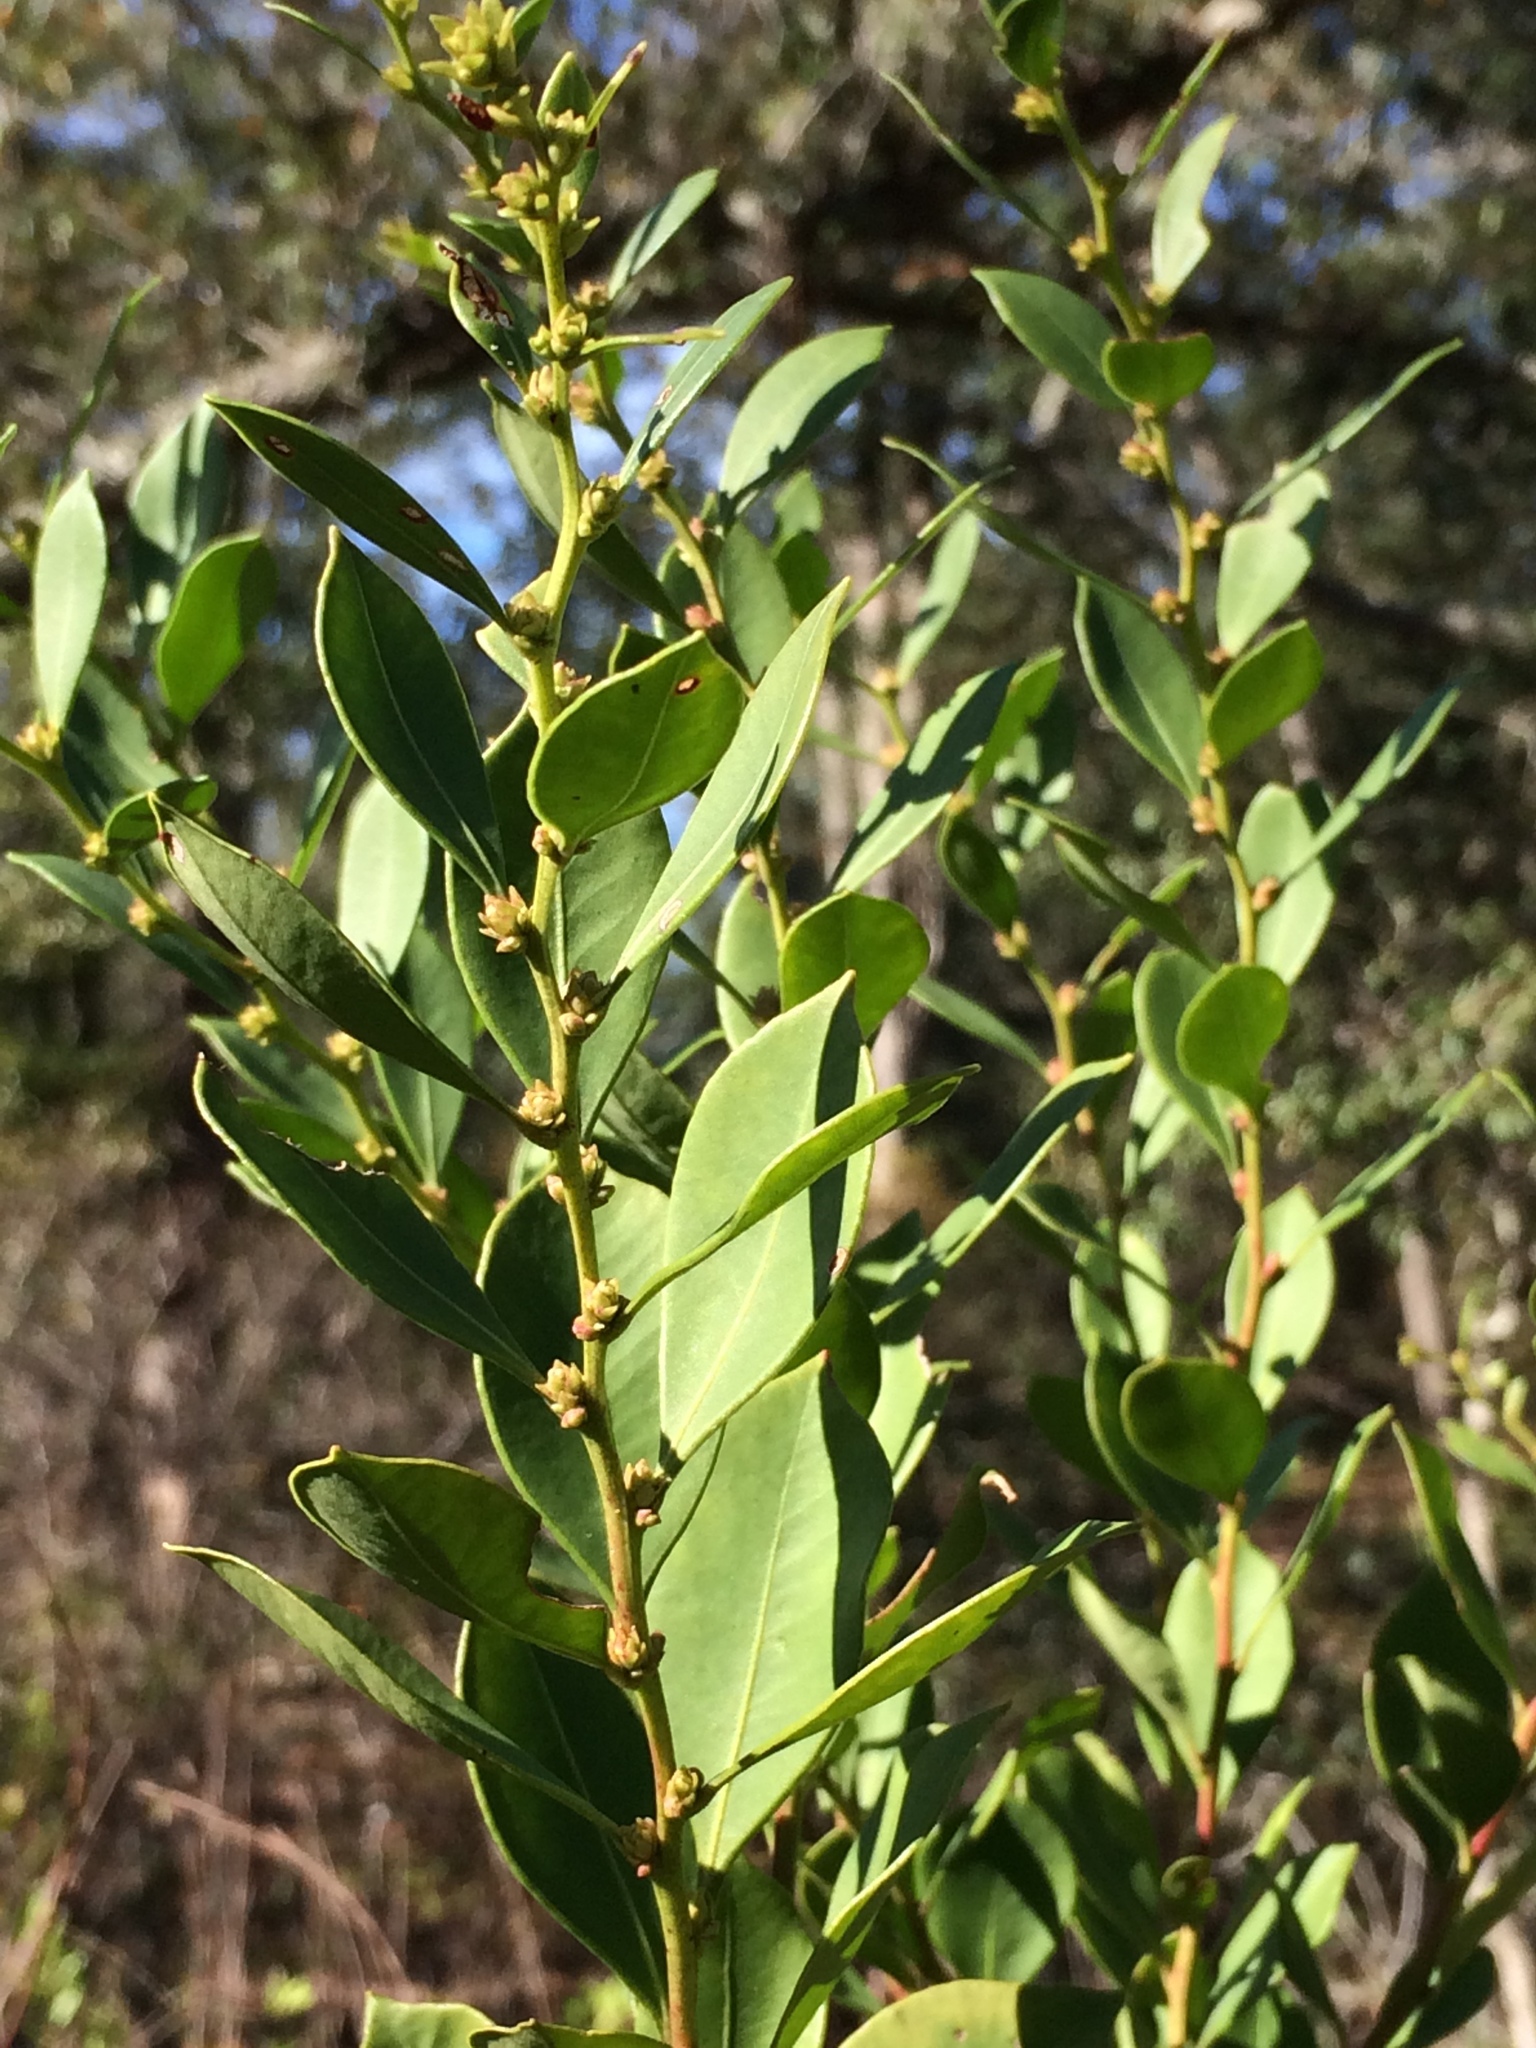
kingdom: Plantae
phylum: Tracheophyta
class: Magnoliopsida
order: Ericales
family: Ericaceae
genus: Lyonia
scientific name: Lyonia lucida
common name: Fetterbush
